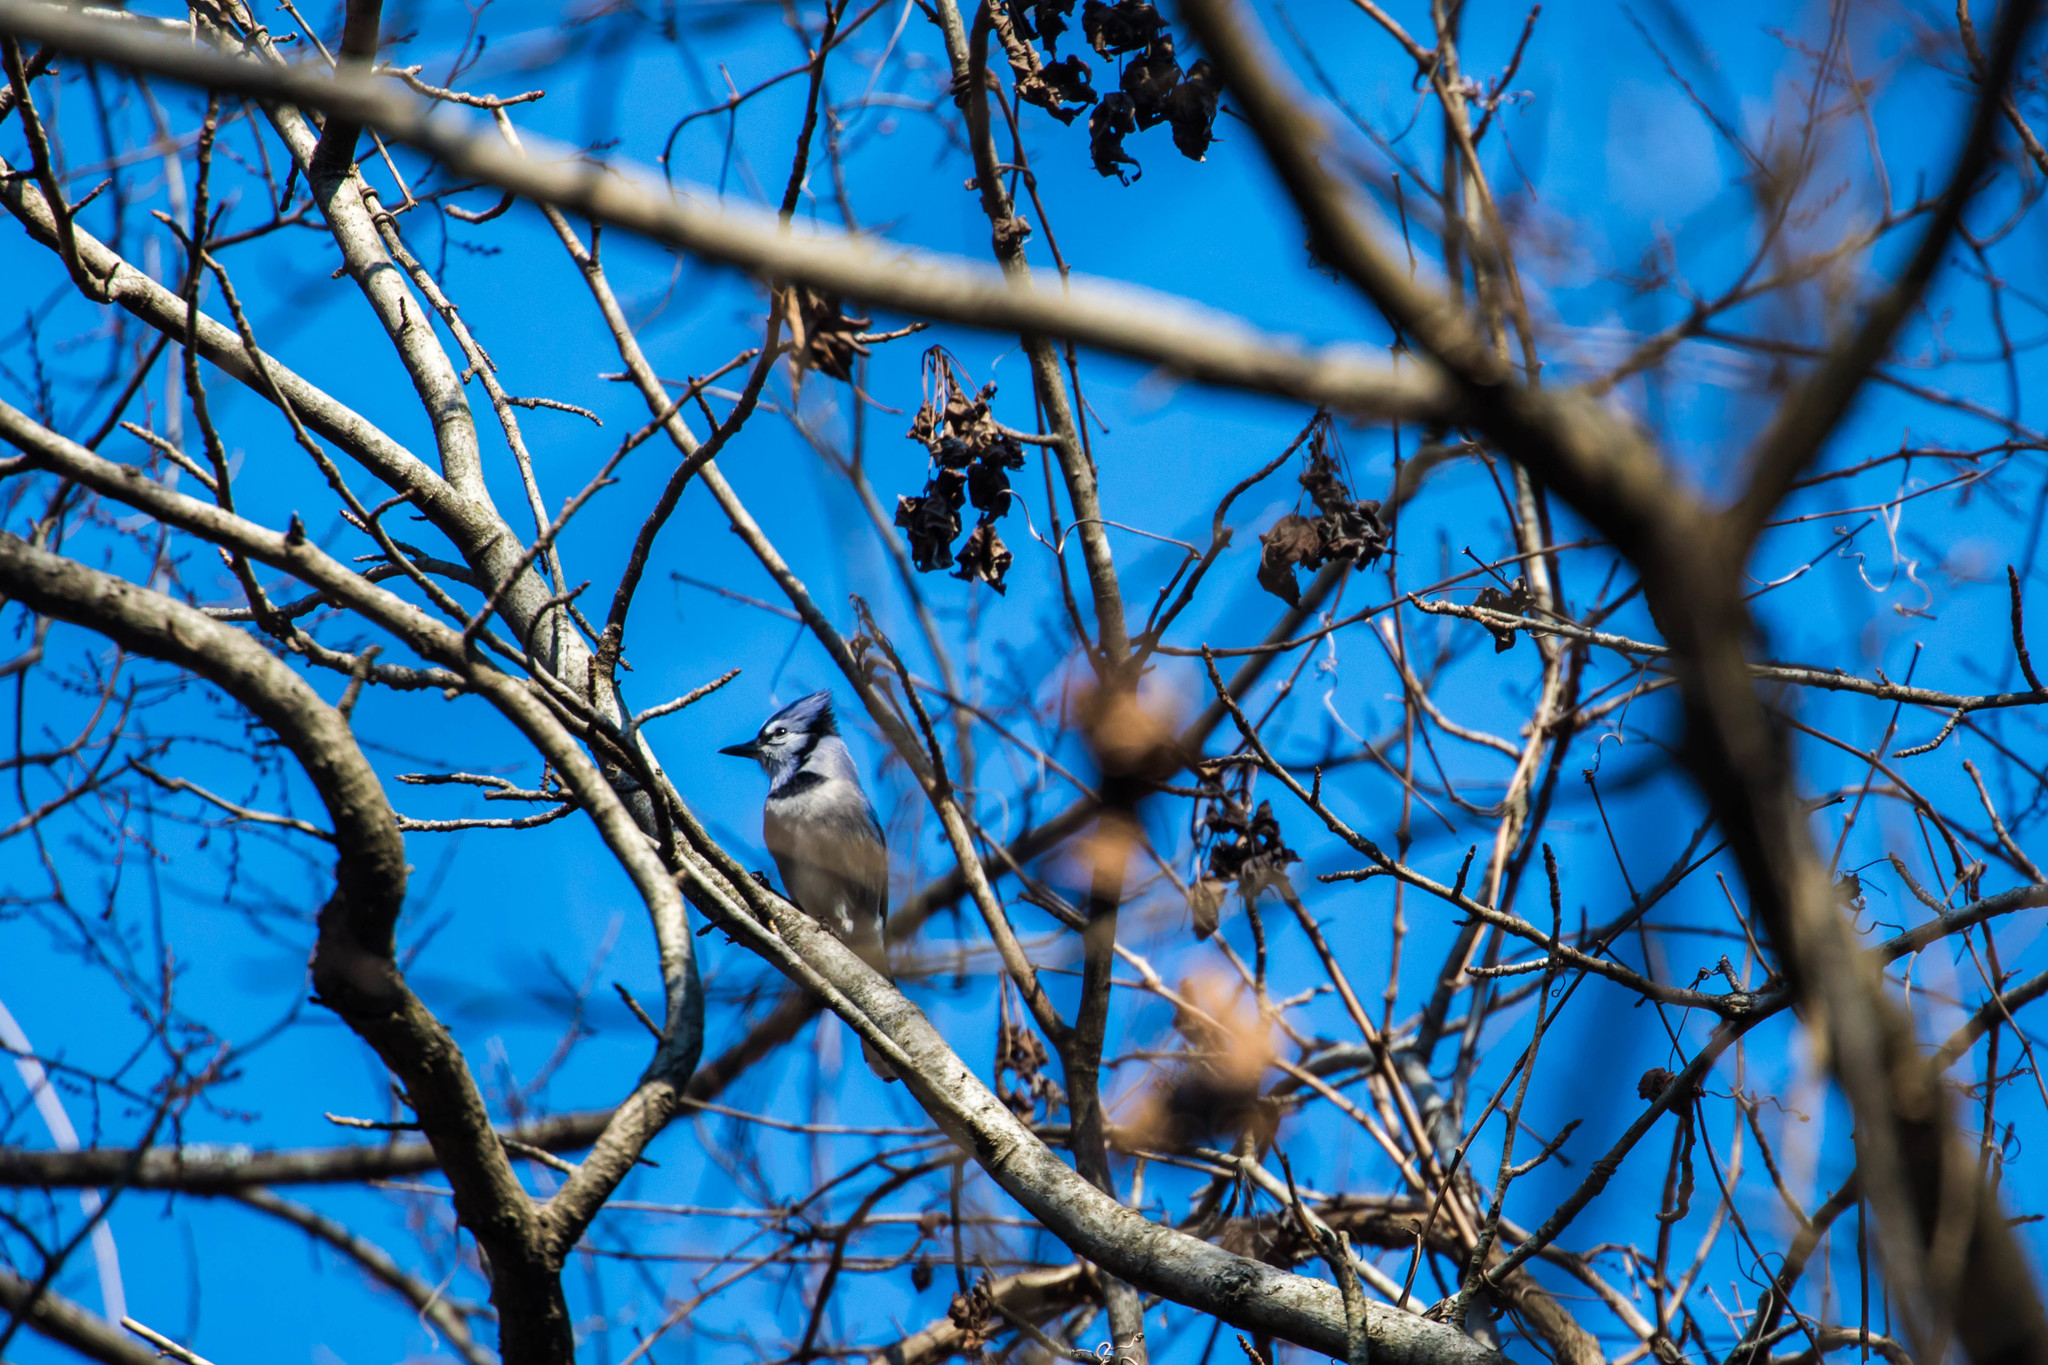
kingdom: Animalia
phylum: Chordata
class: Aves
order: Passeriformes
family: Corvidae
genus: Cyanocitta
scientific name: Cyanocitta cristata
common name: Blue jay
